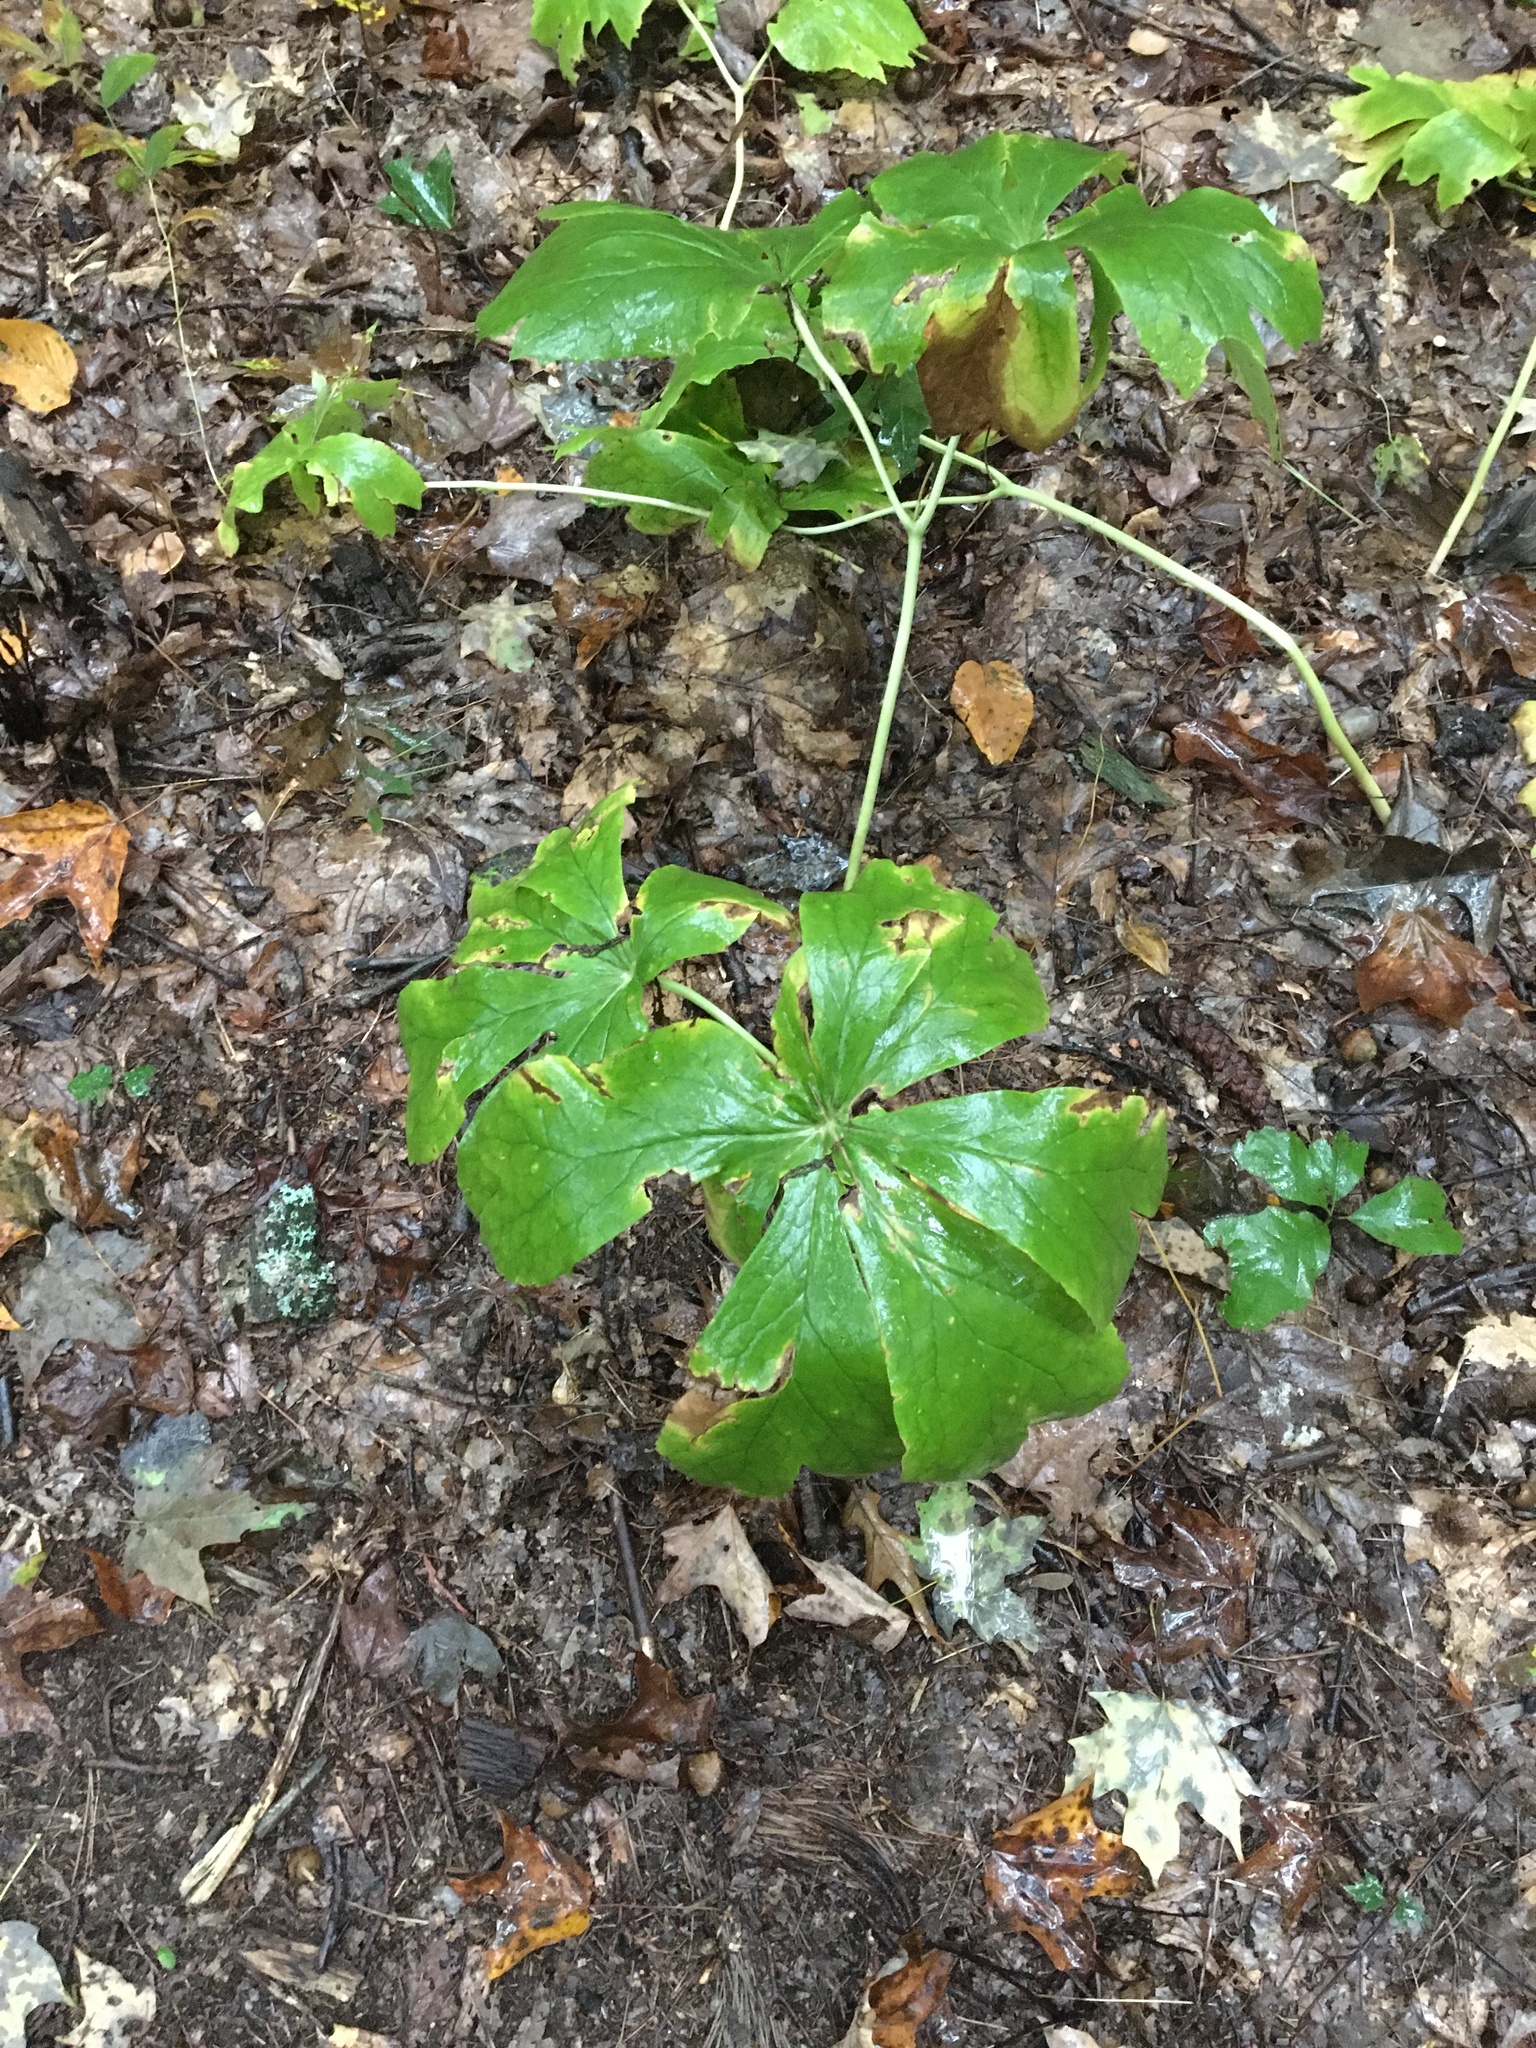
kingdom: Plantae
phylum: Tracheophyta
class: Magnoliopsida
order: Ranunculales
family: Berberidaceae
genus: Podophyllum
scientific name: Podophyllum peltatum
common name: Wild mandrake
